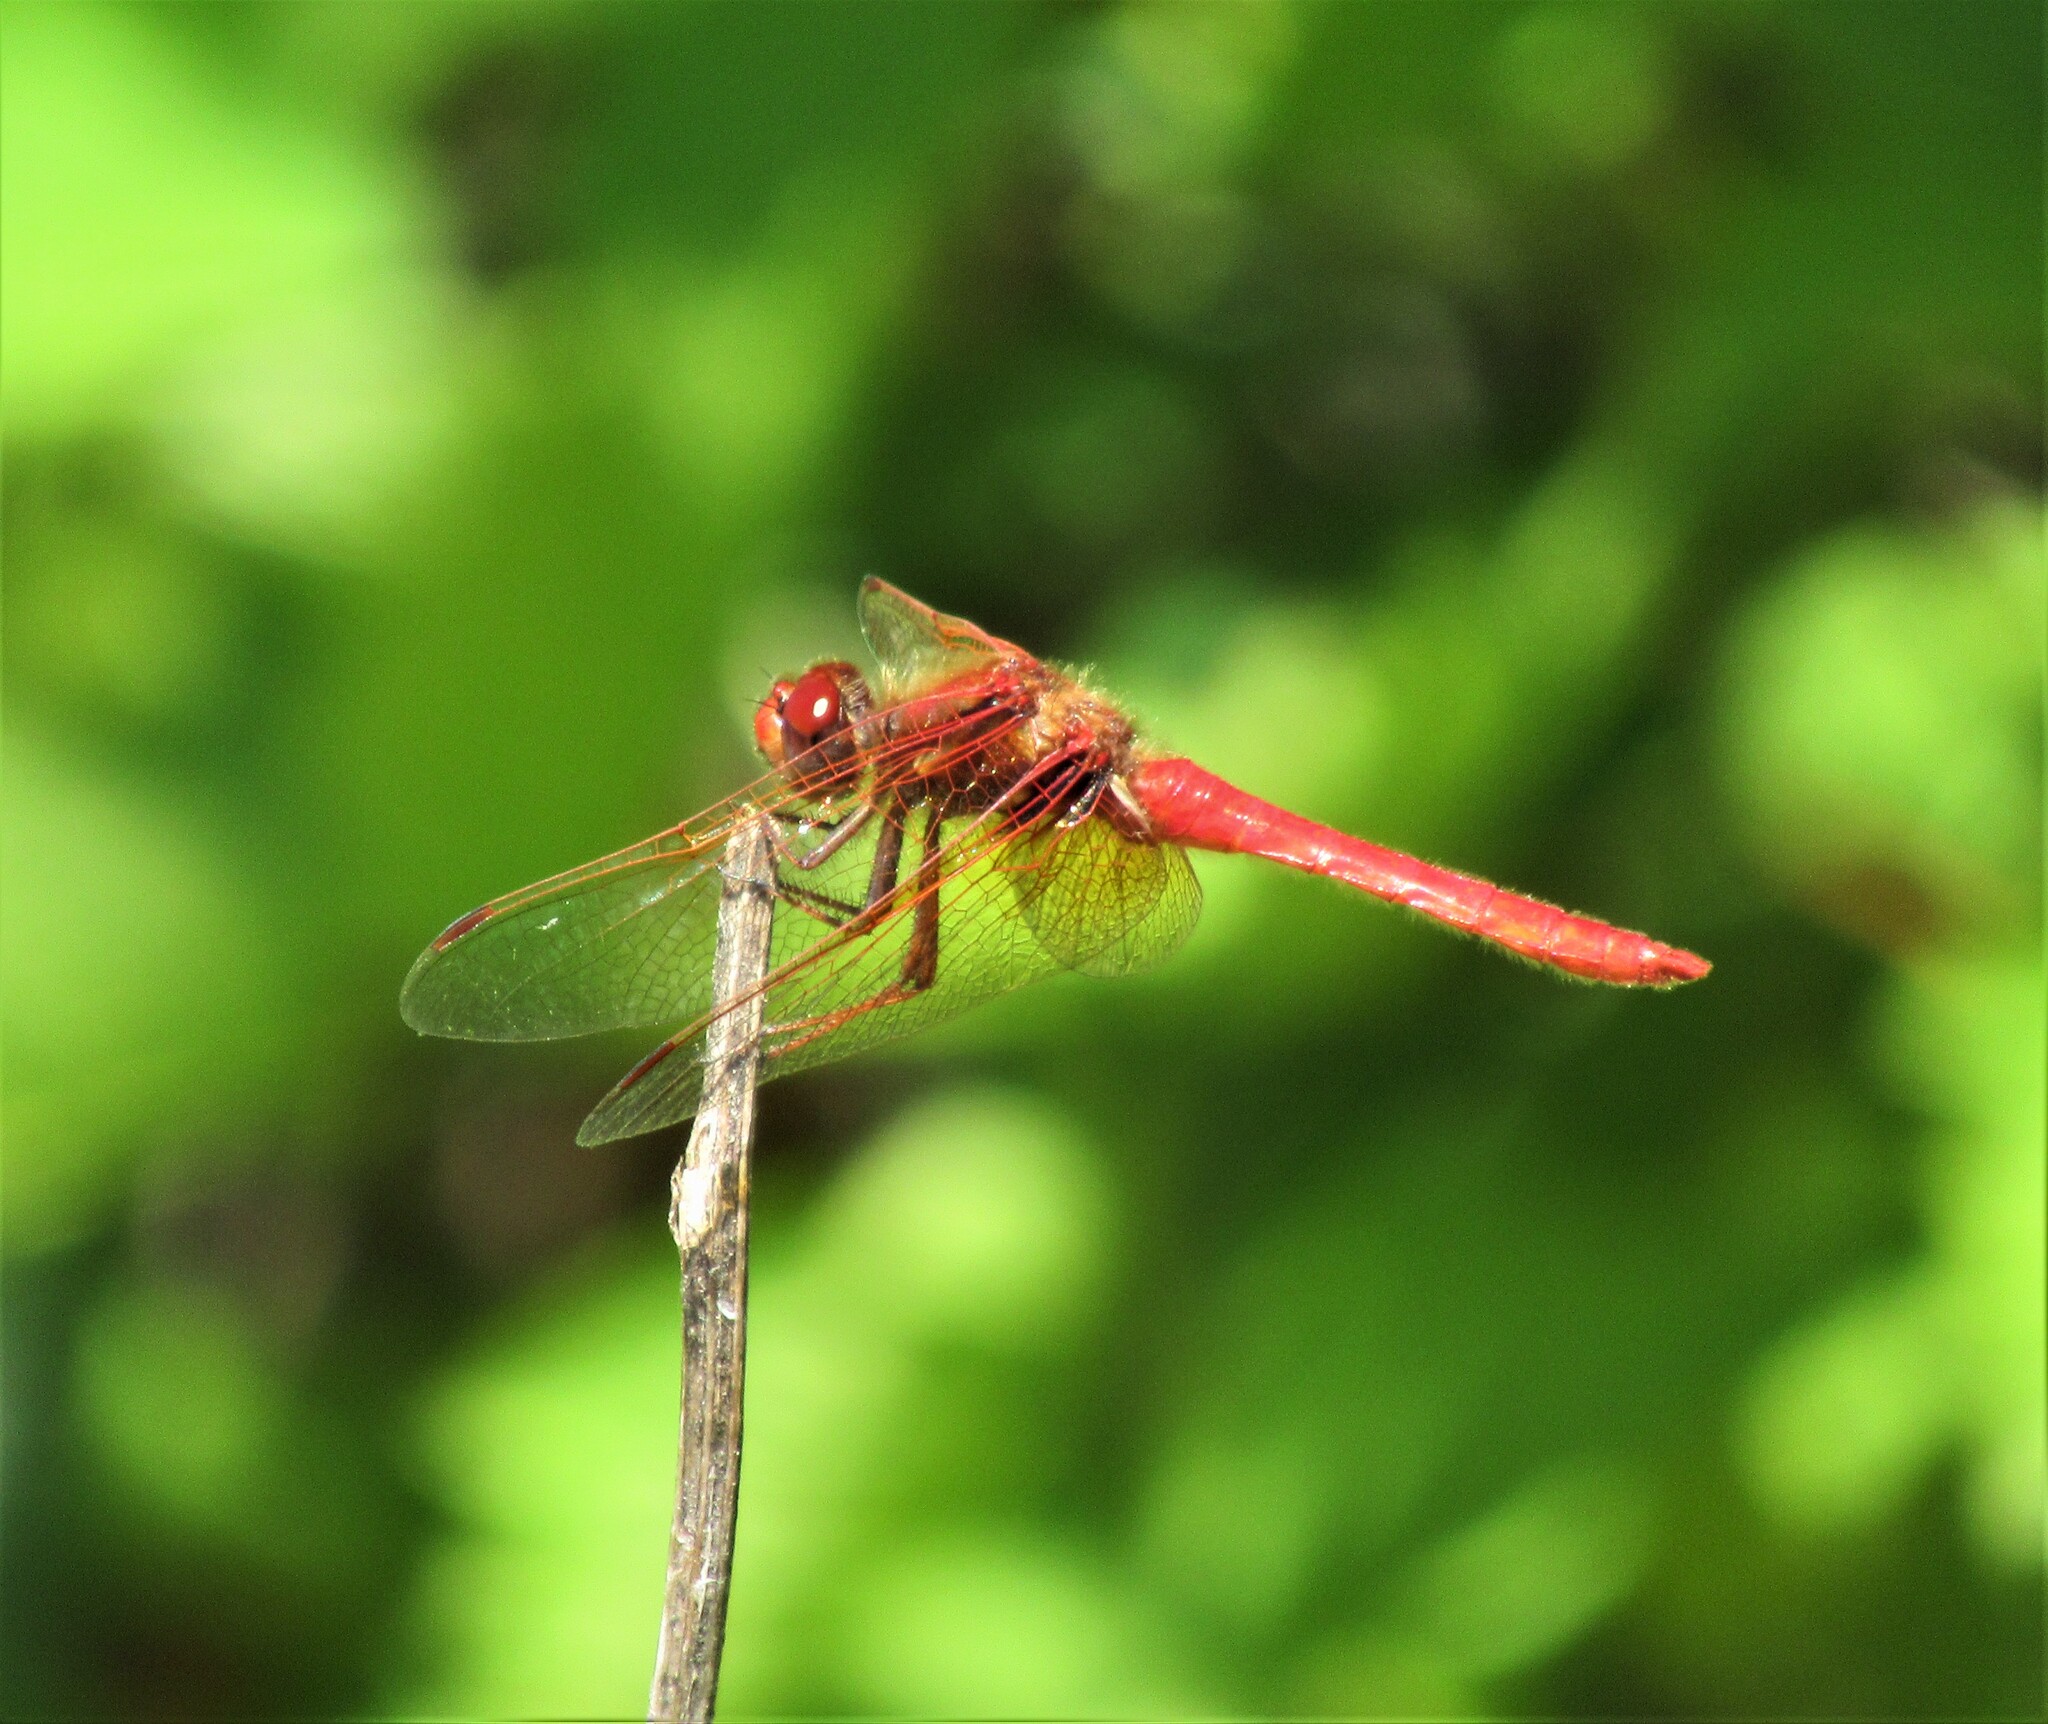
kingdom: Animalia
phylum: Arthropoda
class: Insecta
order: Odonata
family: Libellulidae
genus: Sympetrum
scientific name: Sympetrum illotum
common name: Cardinal meadowhawk
